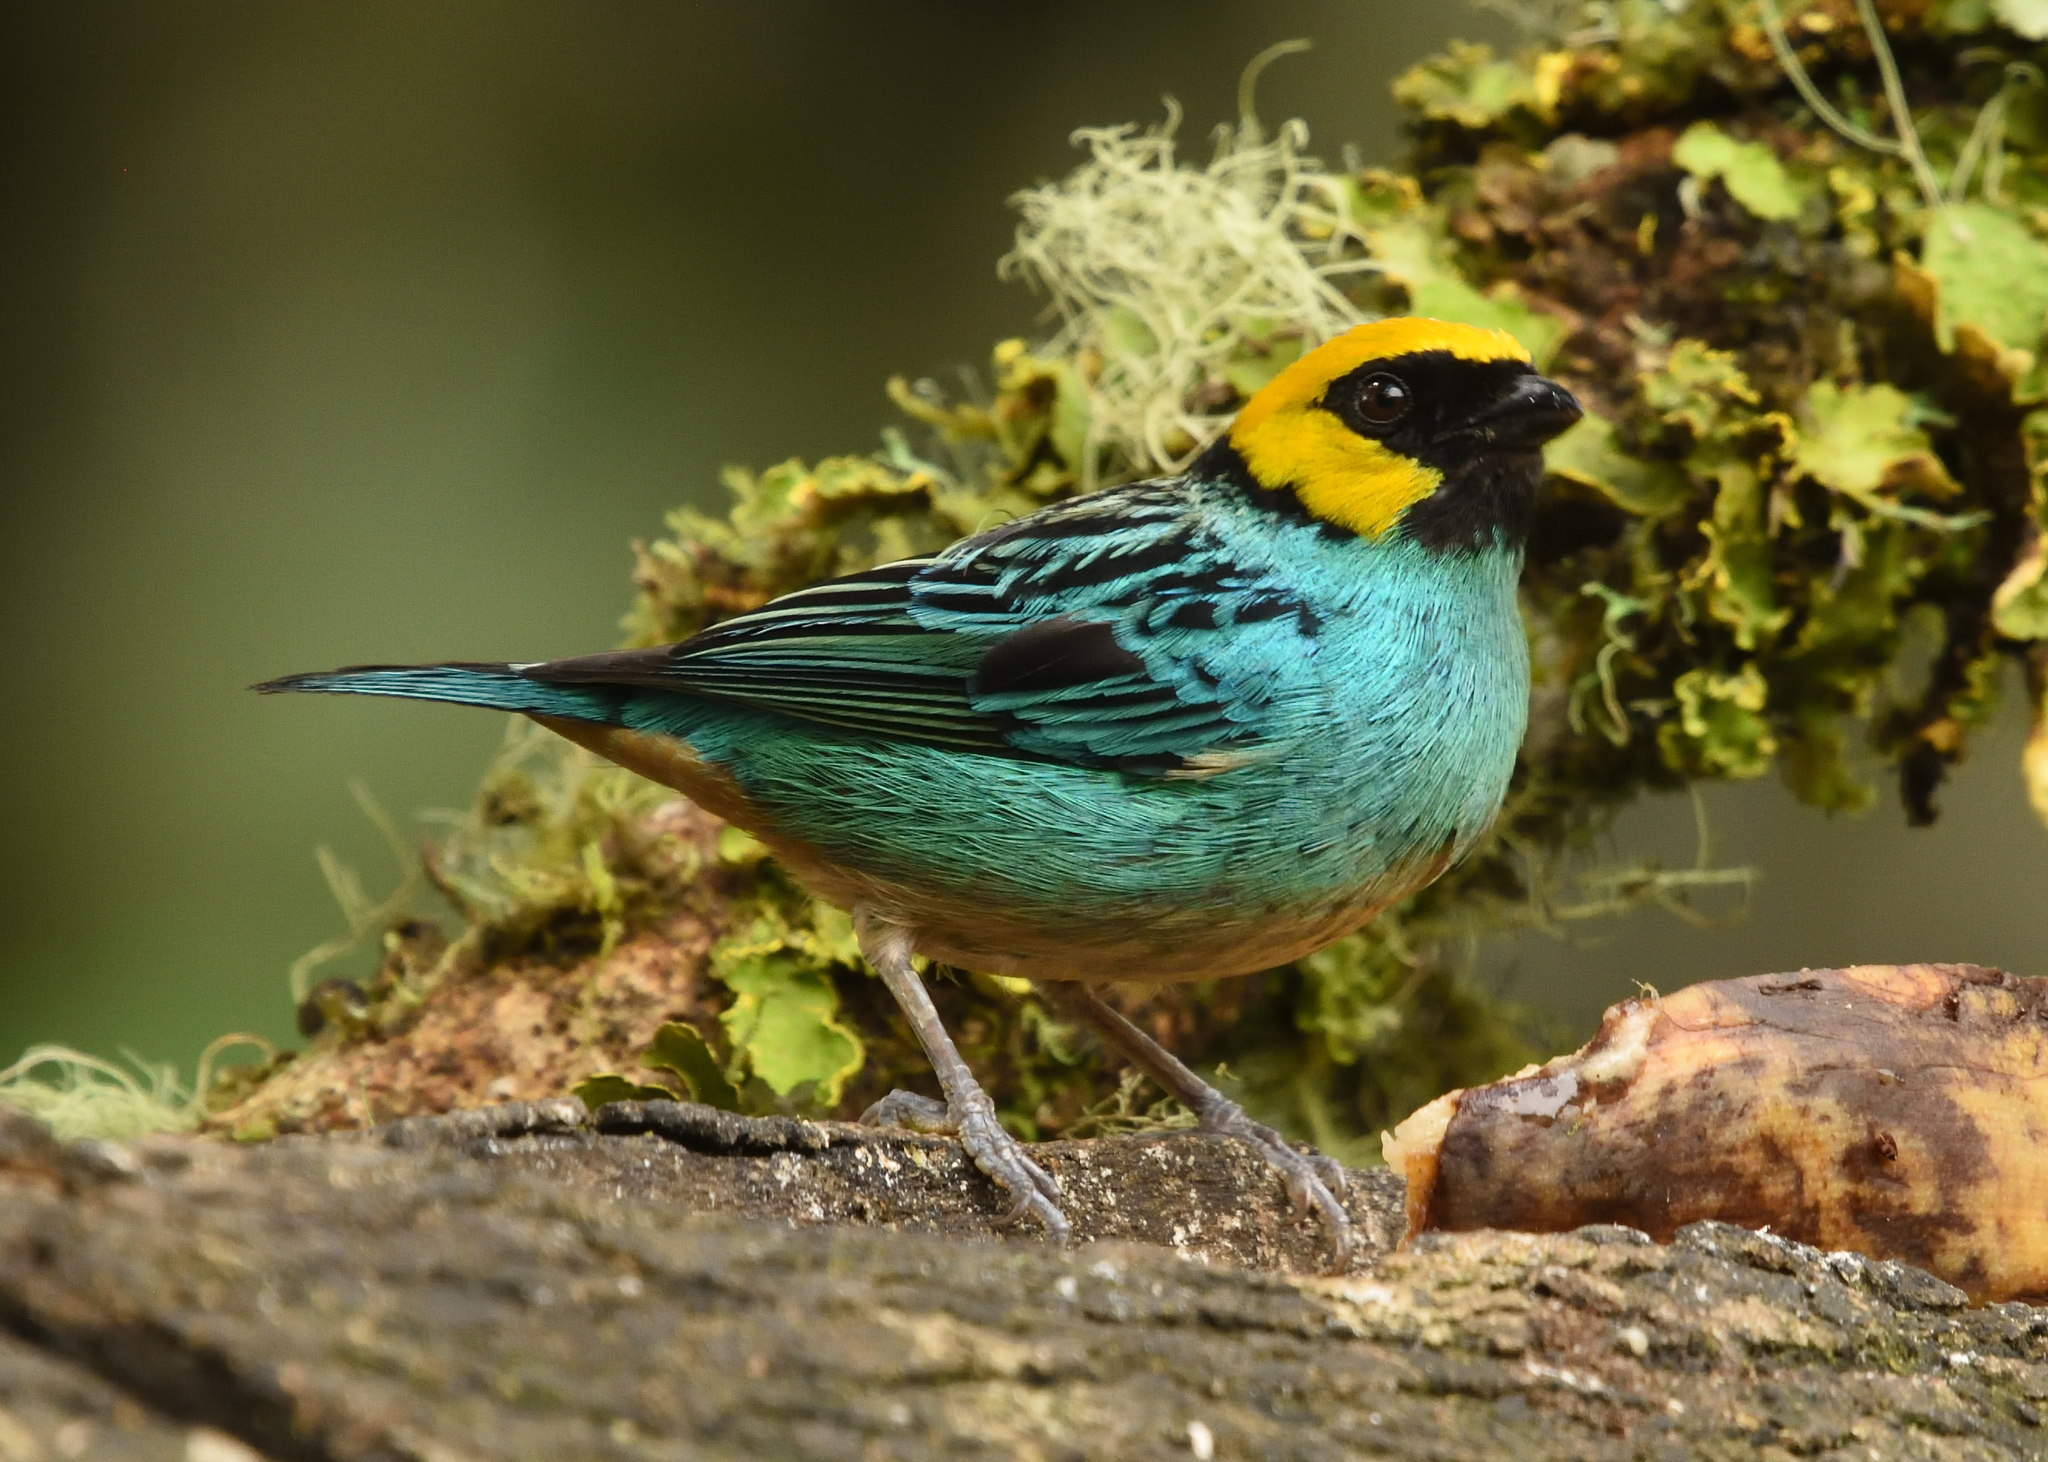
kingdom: Animalia
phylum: Chordata
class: Aves
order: Passeriformes
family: Thraupidae
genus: Tangara
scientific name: Tangara xanthocephala
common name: Saffron-crowned tanager
